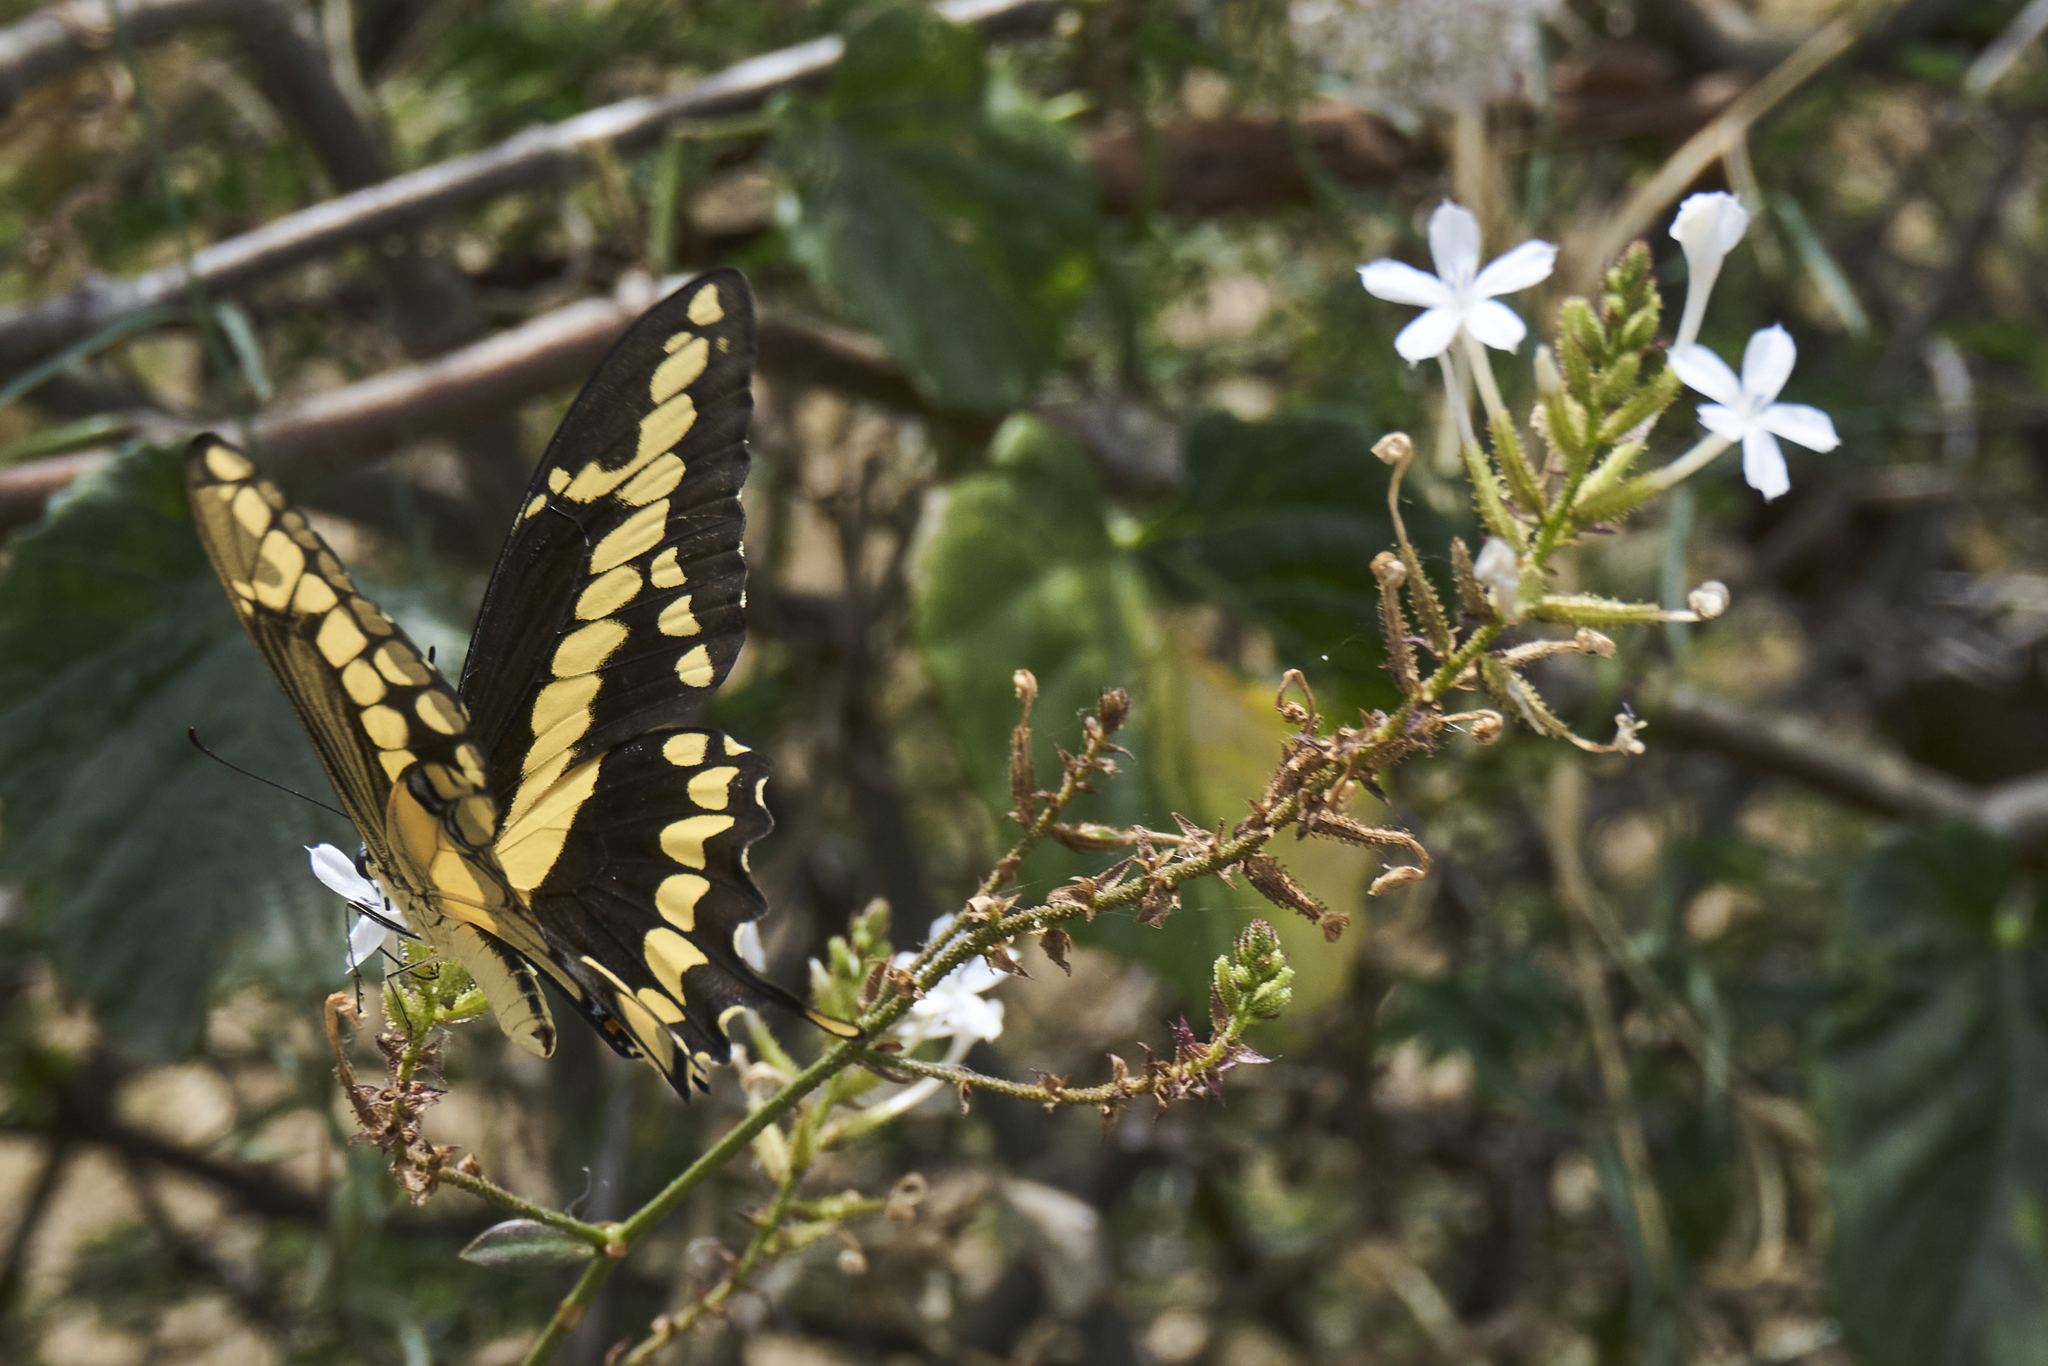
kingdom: Animalia
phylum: Arthropoda
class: Insecta
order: Lepidoptera
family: Papilionidae
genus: Papilio
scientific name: Papilio rumiko
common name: Western giant swallowtail
